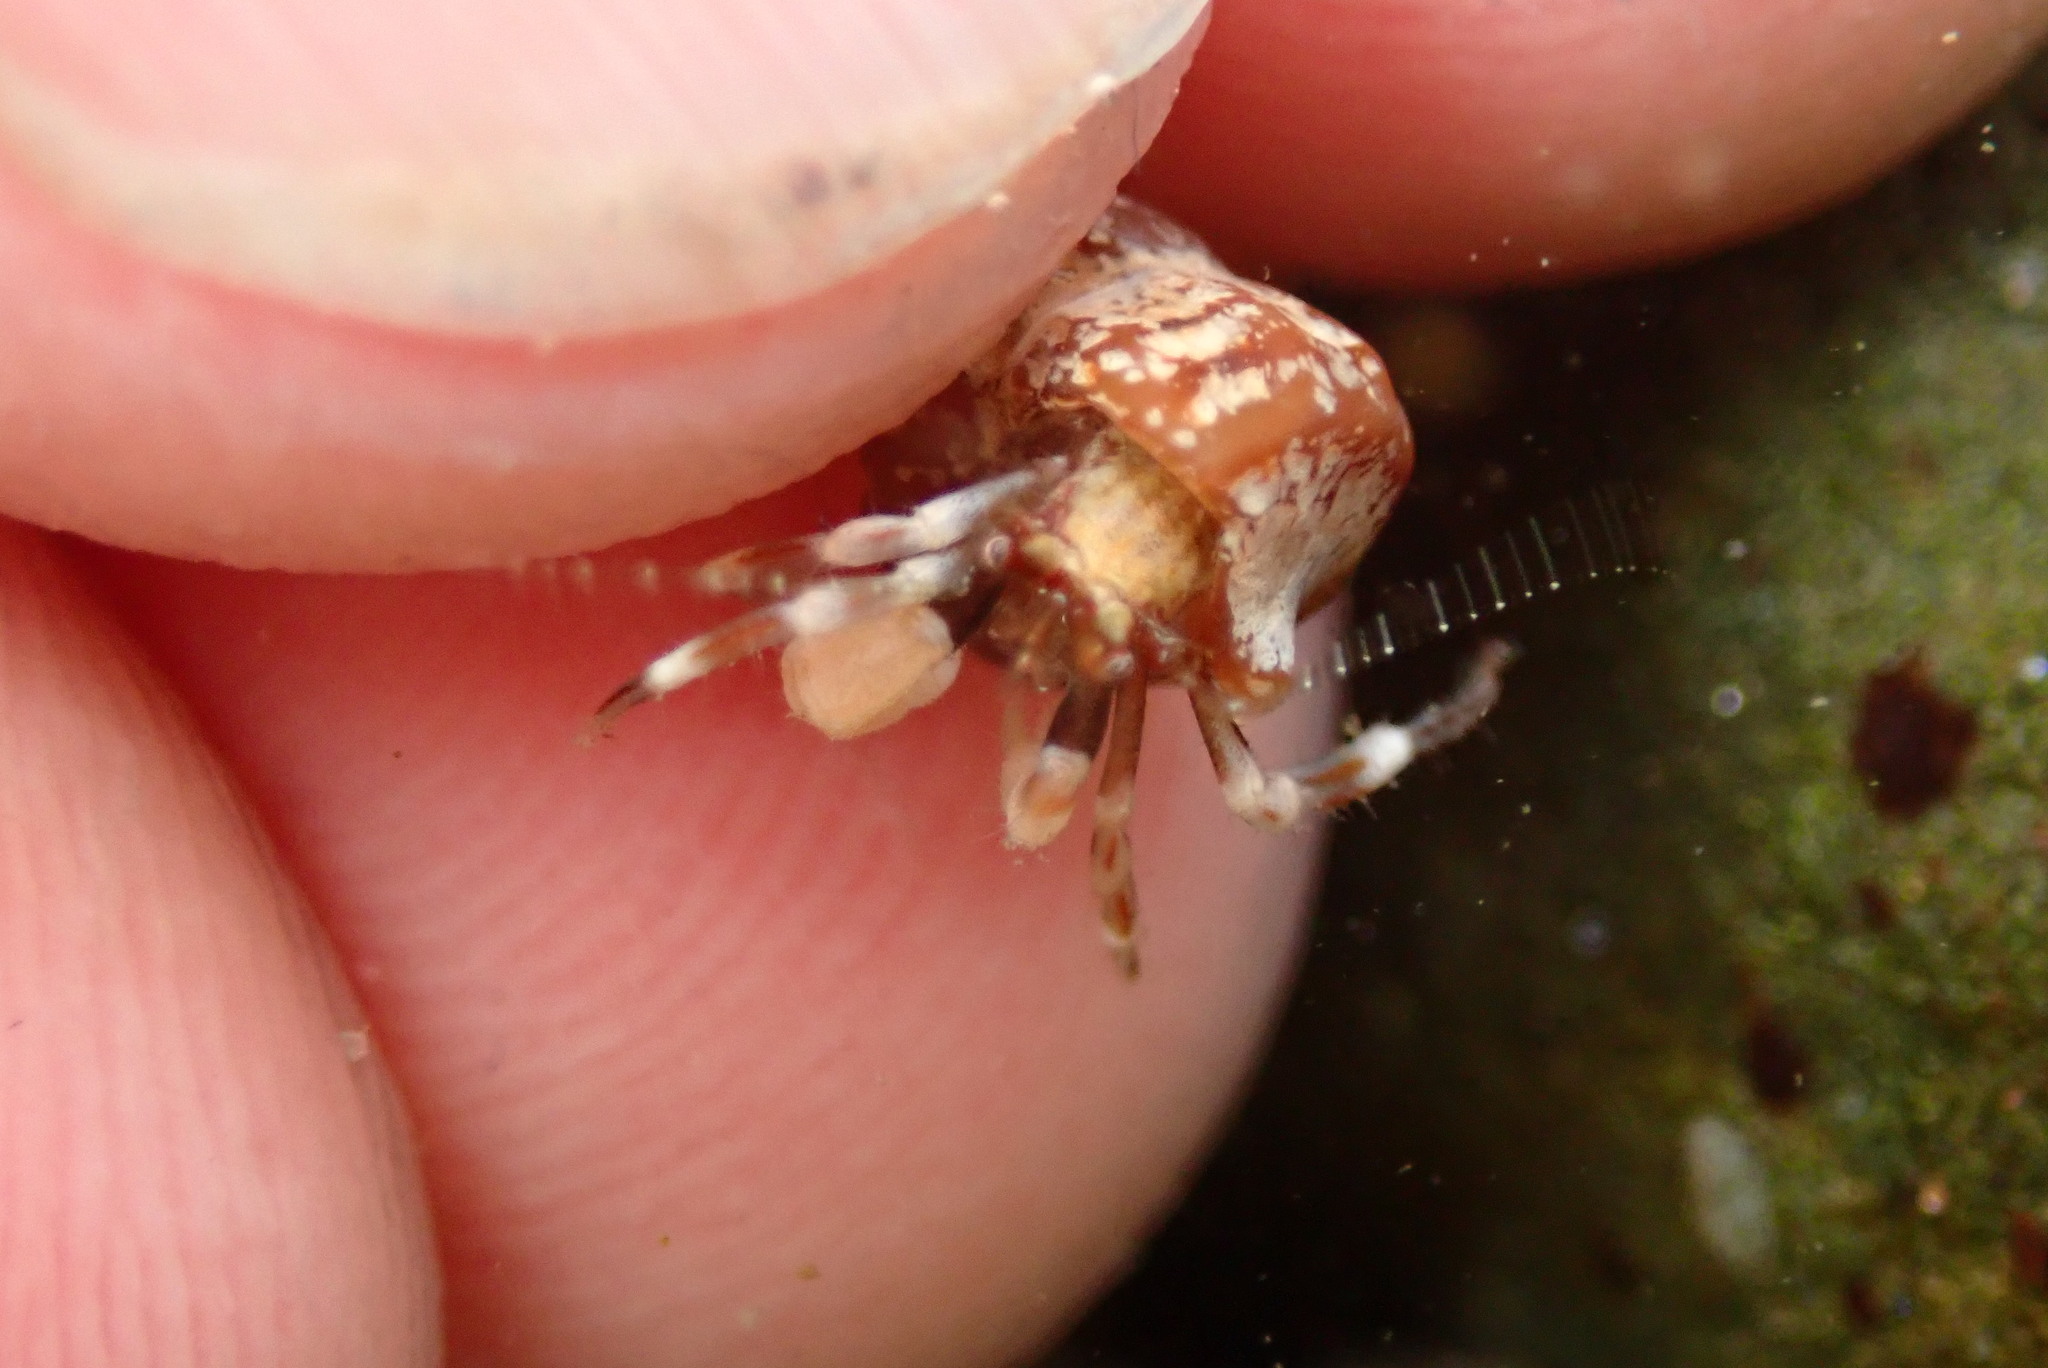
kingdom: Animalia
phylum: Arthropoda
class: Malacostraca
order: Decapoda
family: Paguridae
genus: Pagurus
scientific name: Pagurus venturensis
